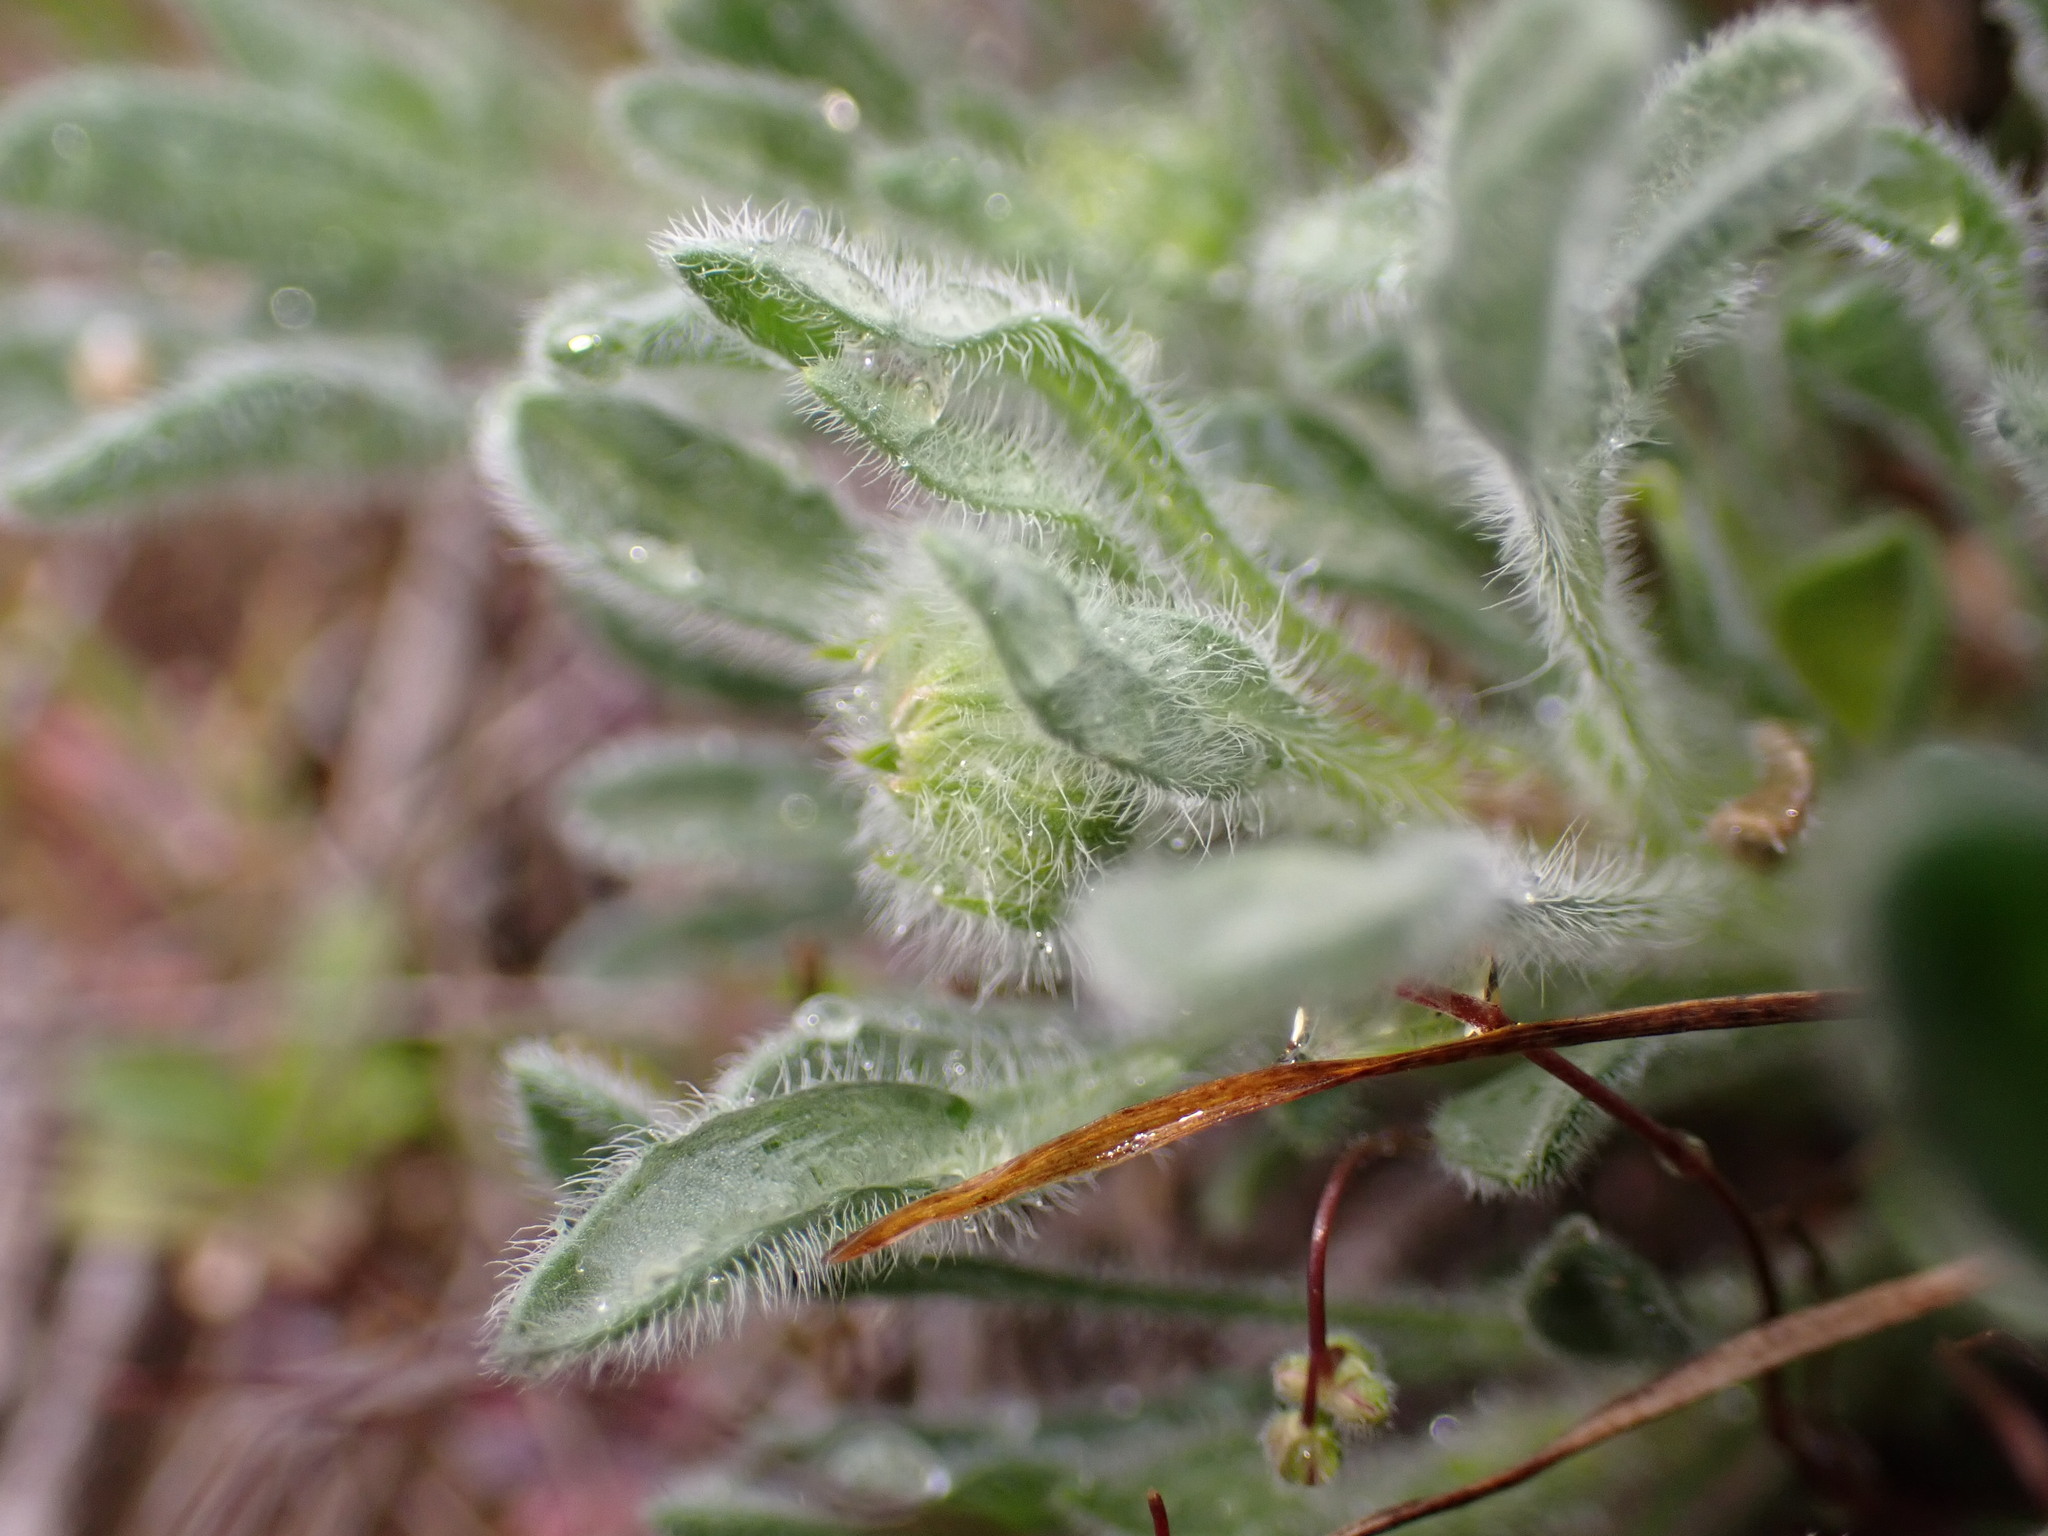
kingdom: Plantae
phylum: Tracheophyta
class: Magnoliopsida
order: Asterales
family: Asteraceae
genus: Erigeron
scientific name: Erigeron poliospermus
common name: Cushion fleabane
